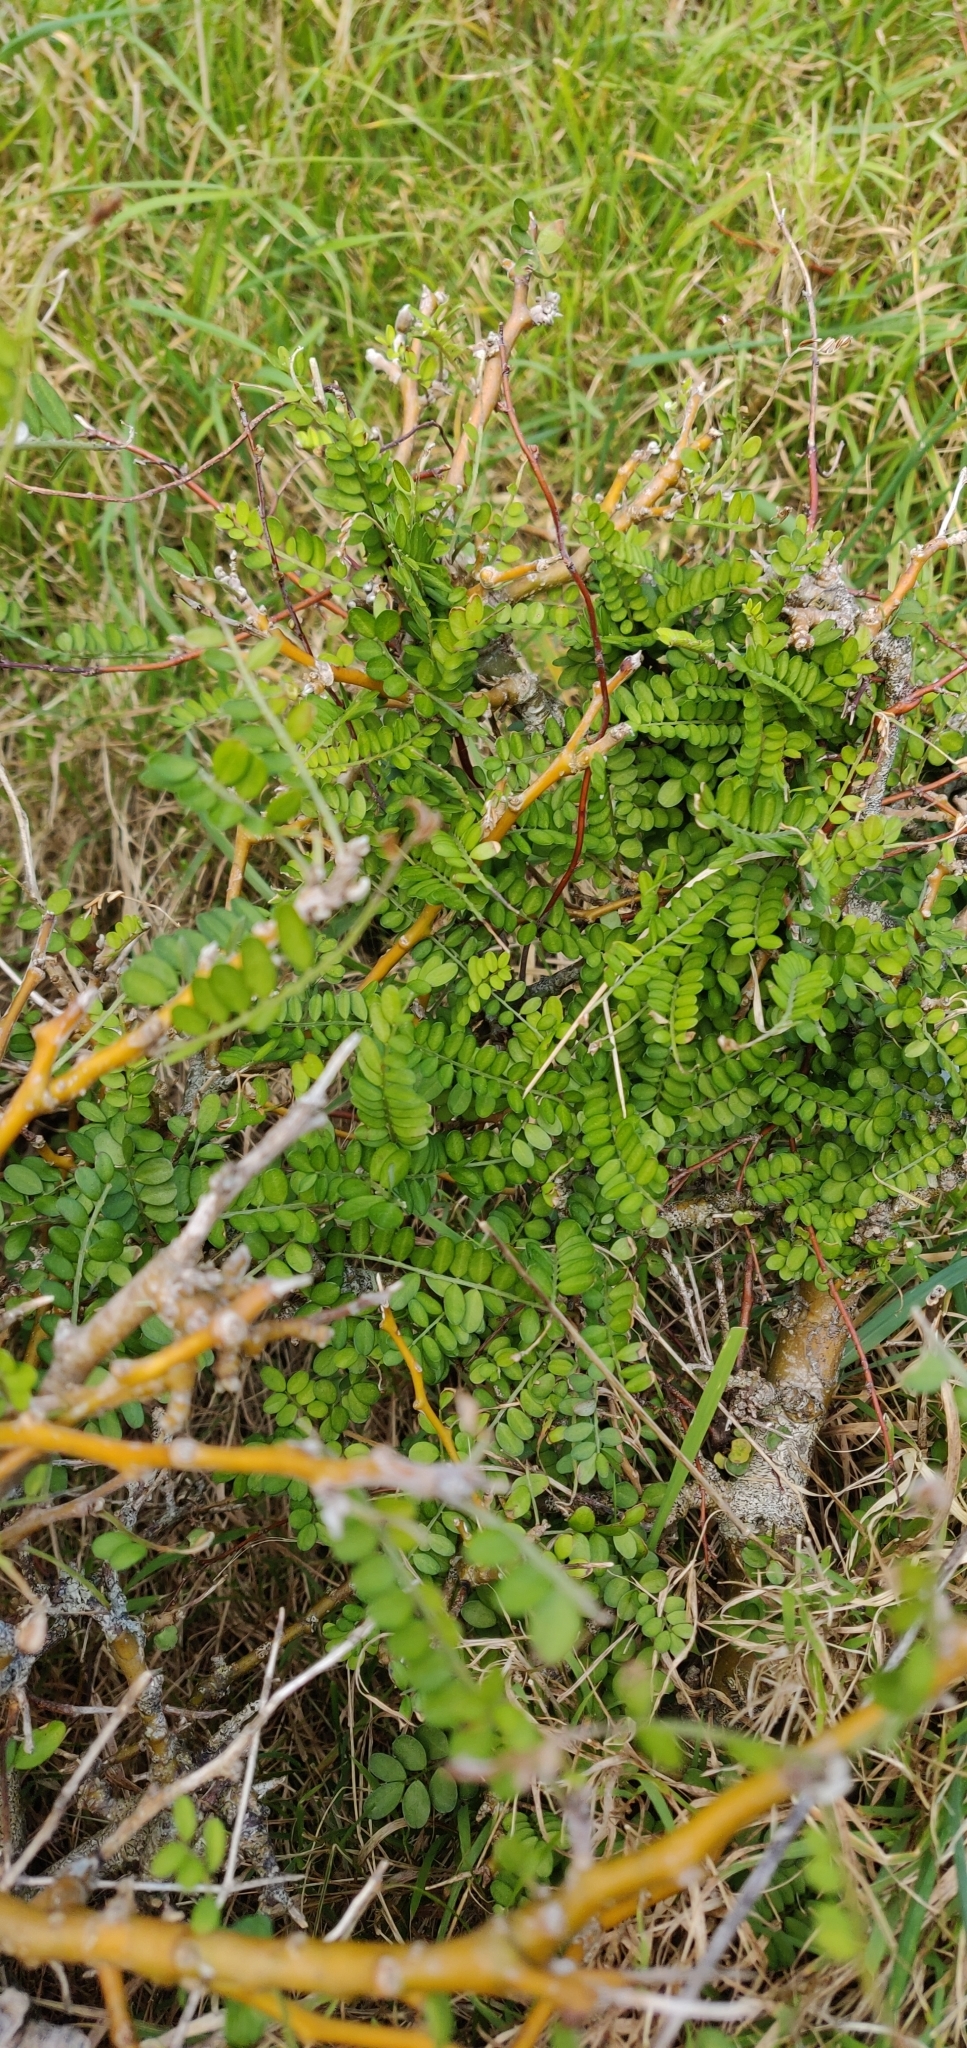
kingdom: Plantae
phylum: Tracheophyta
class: Magnoliopsida
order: Fabales
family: Fabaceae
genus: Sophora
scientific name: Sophora molloyi
